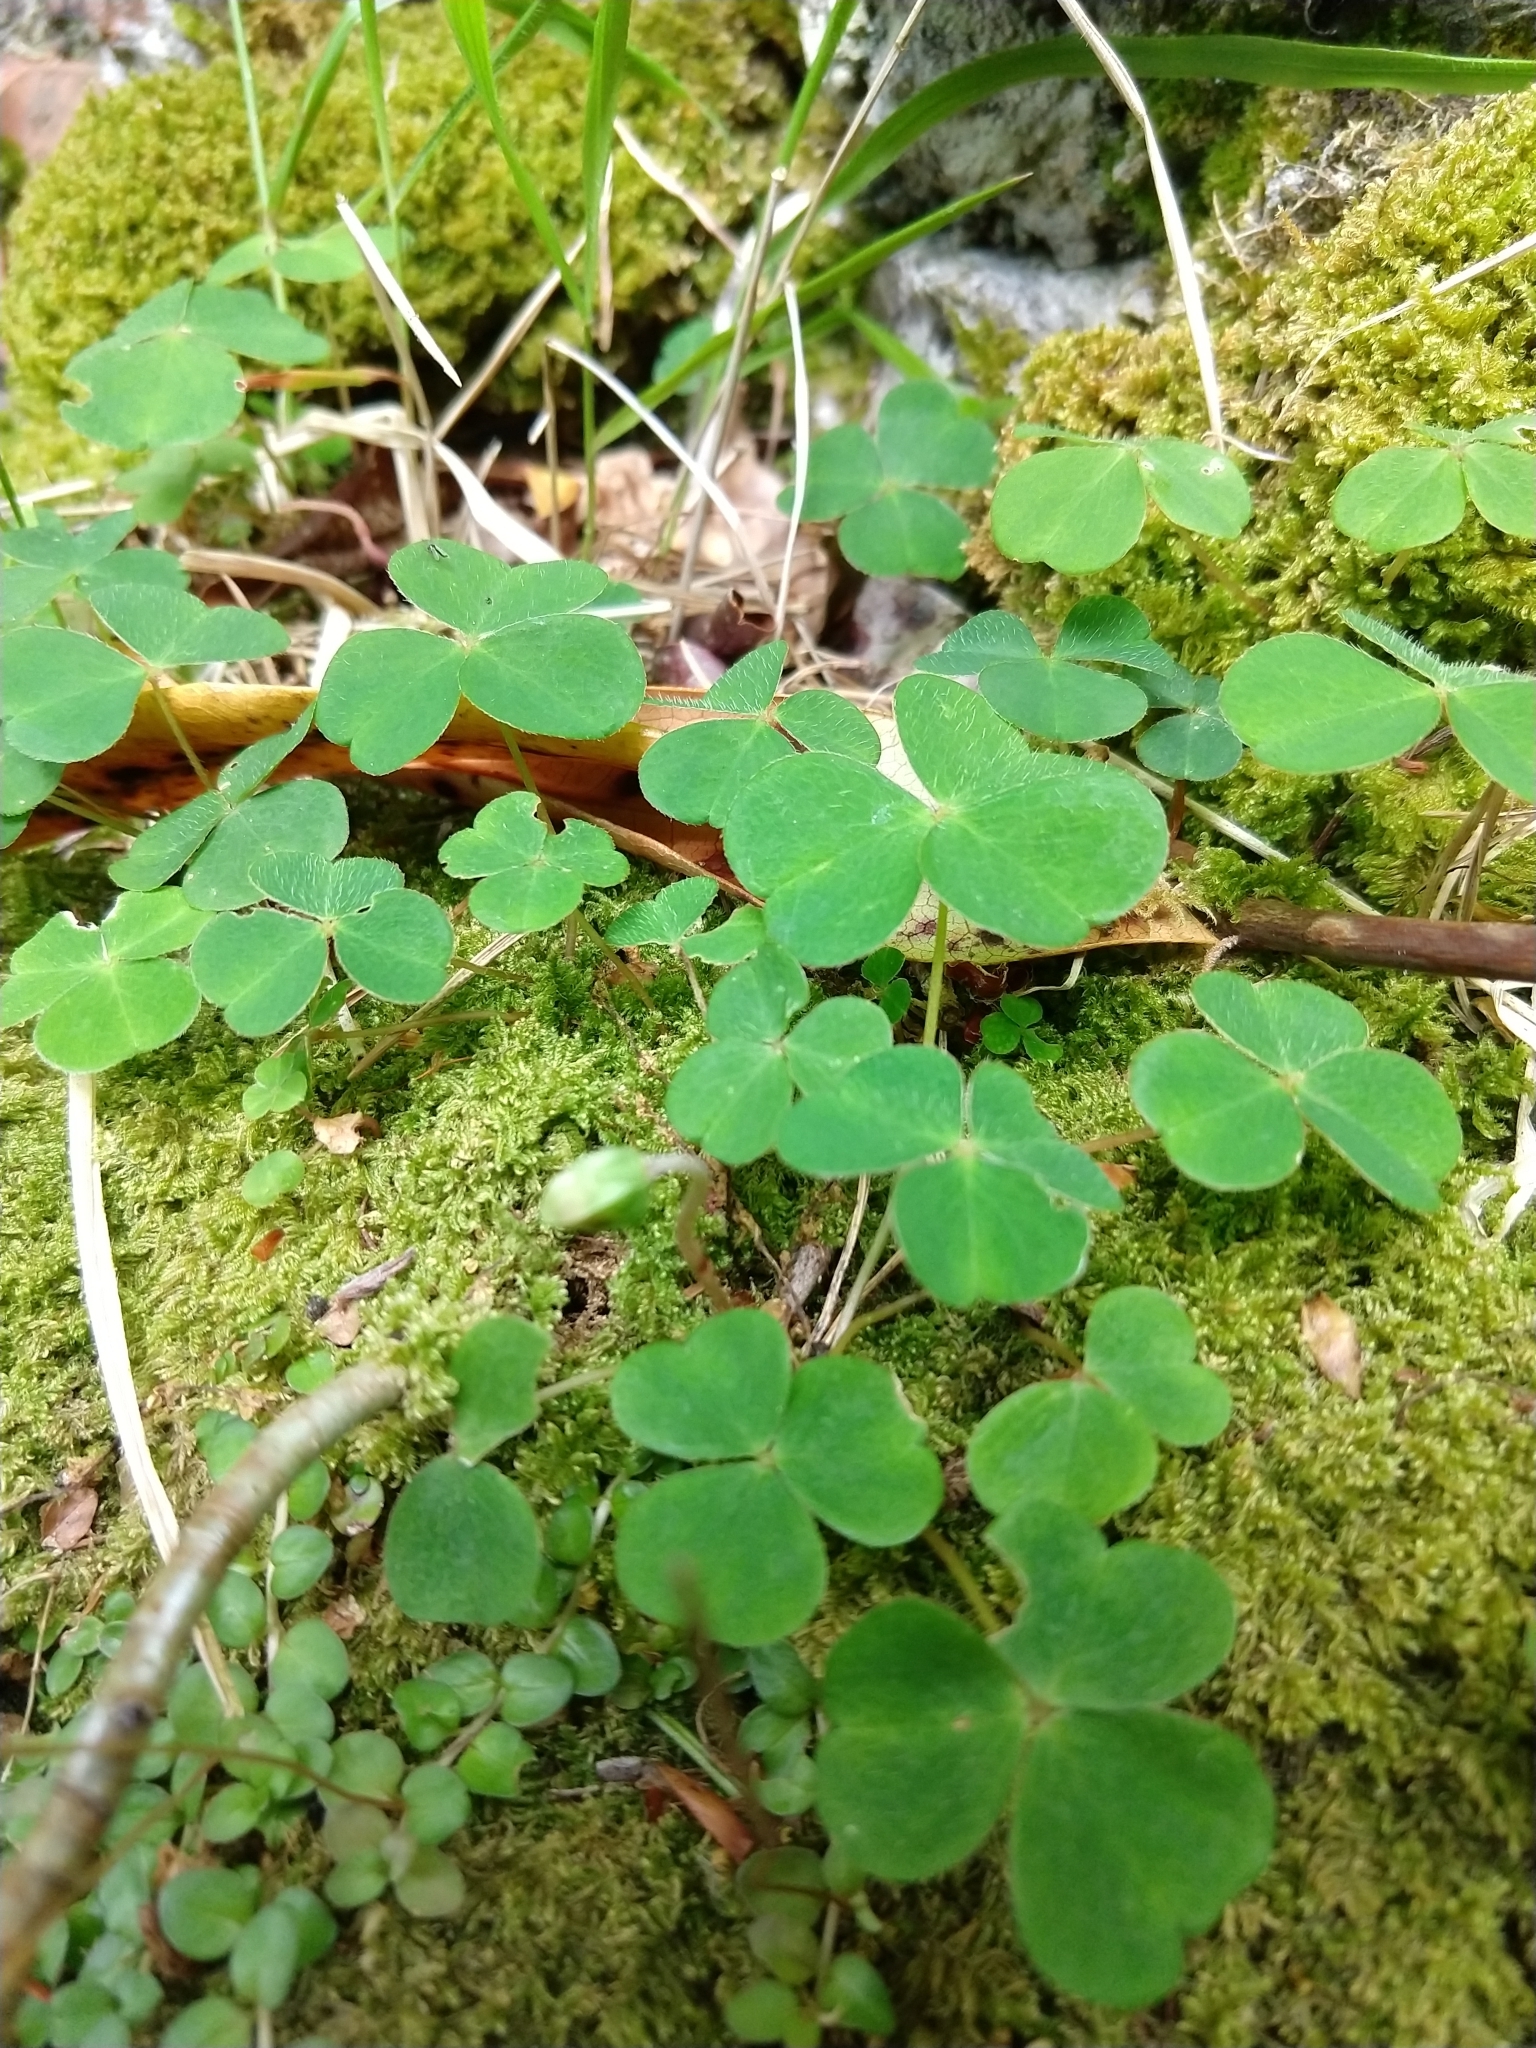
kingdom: Plantae
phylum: Tracheophyta
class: Magnoliopsida
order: Oxalidales
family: Oxalidaceae
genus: Oxalis
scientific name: Oxalis acetosella
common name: Wood-sorrel
